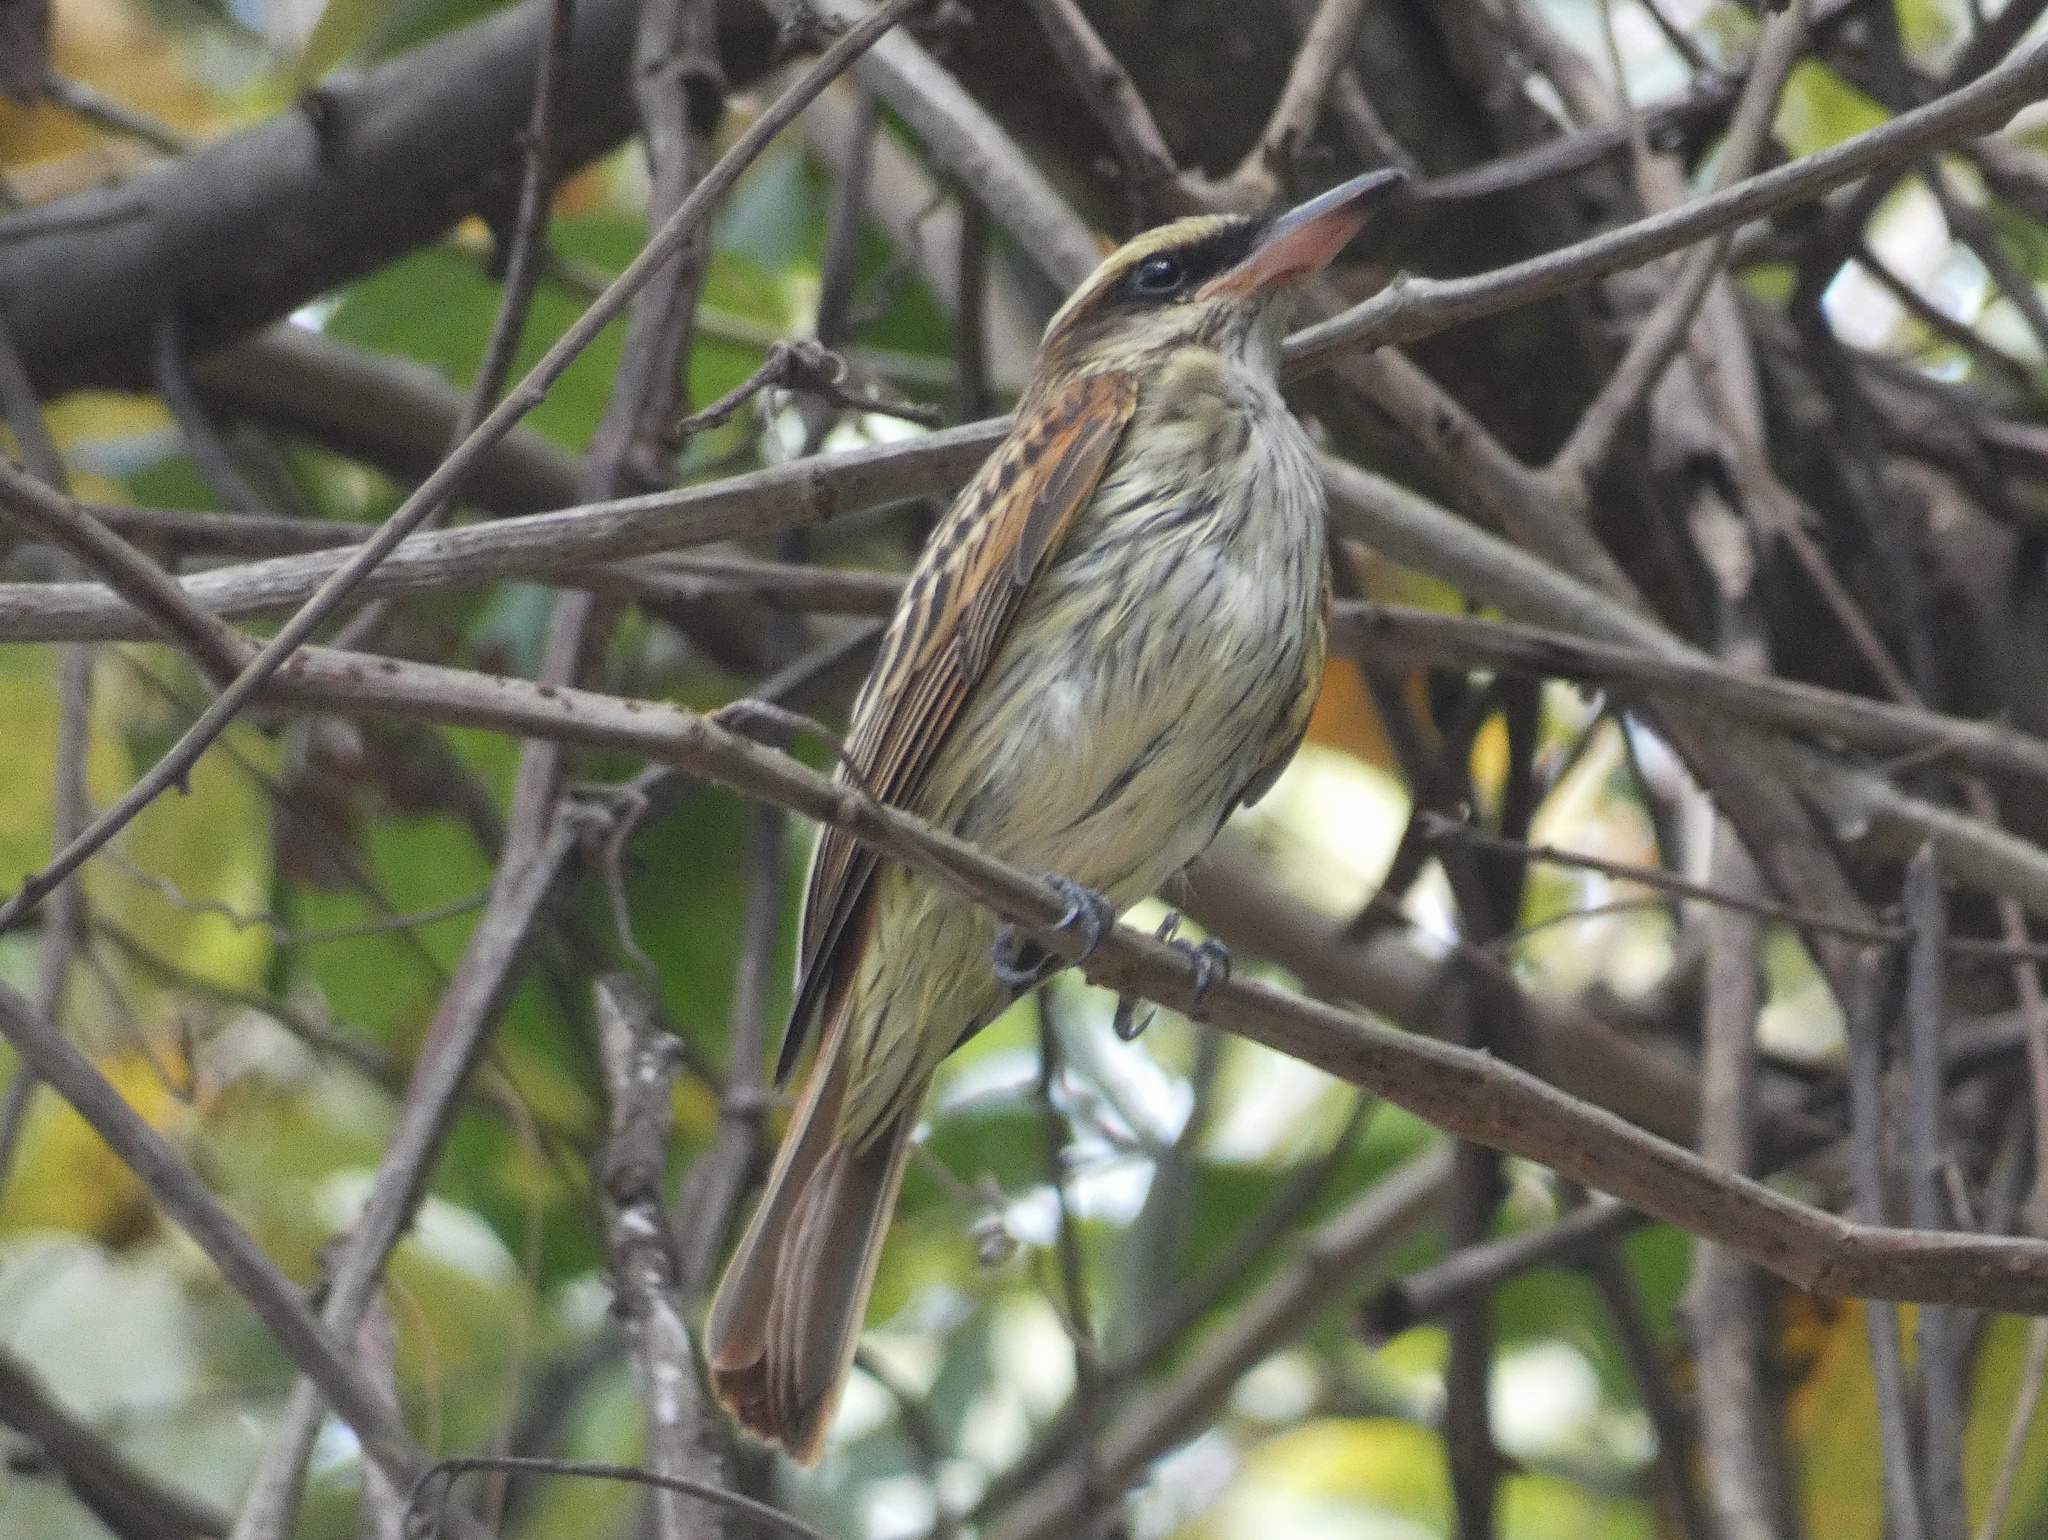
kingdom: Animalia
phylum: Chordata
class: Aves
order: Passeriformes
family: Tyrannidae
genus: Myiodynastes
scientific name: Myiodynastes maculatus
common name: Streaked flycatcher
